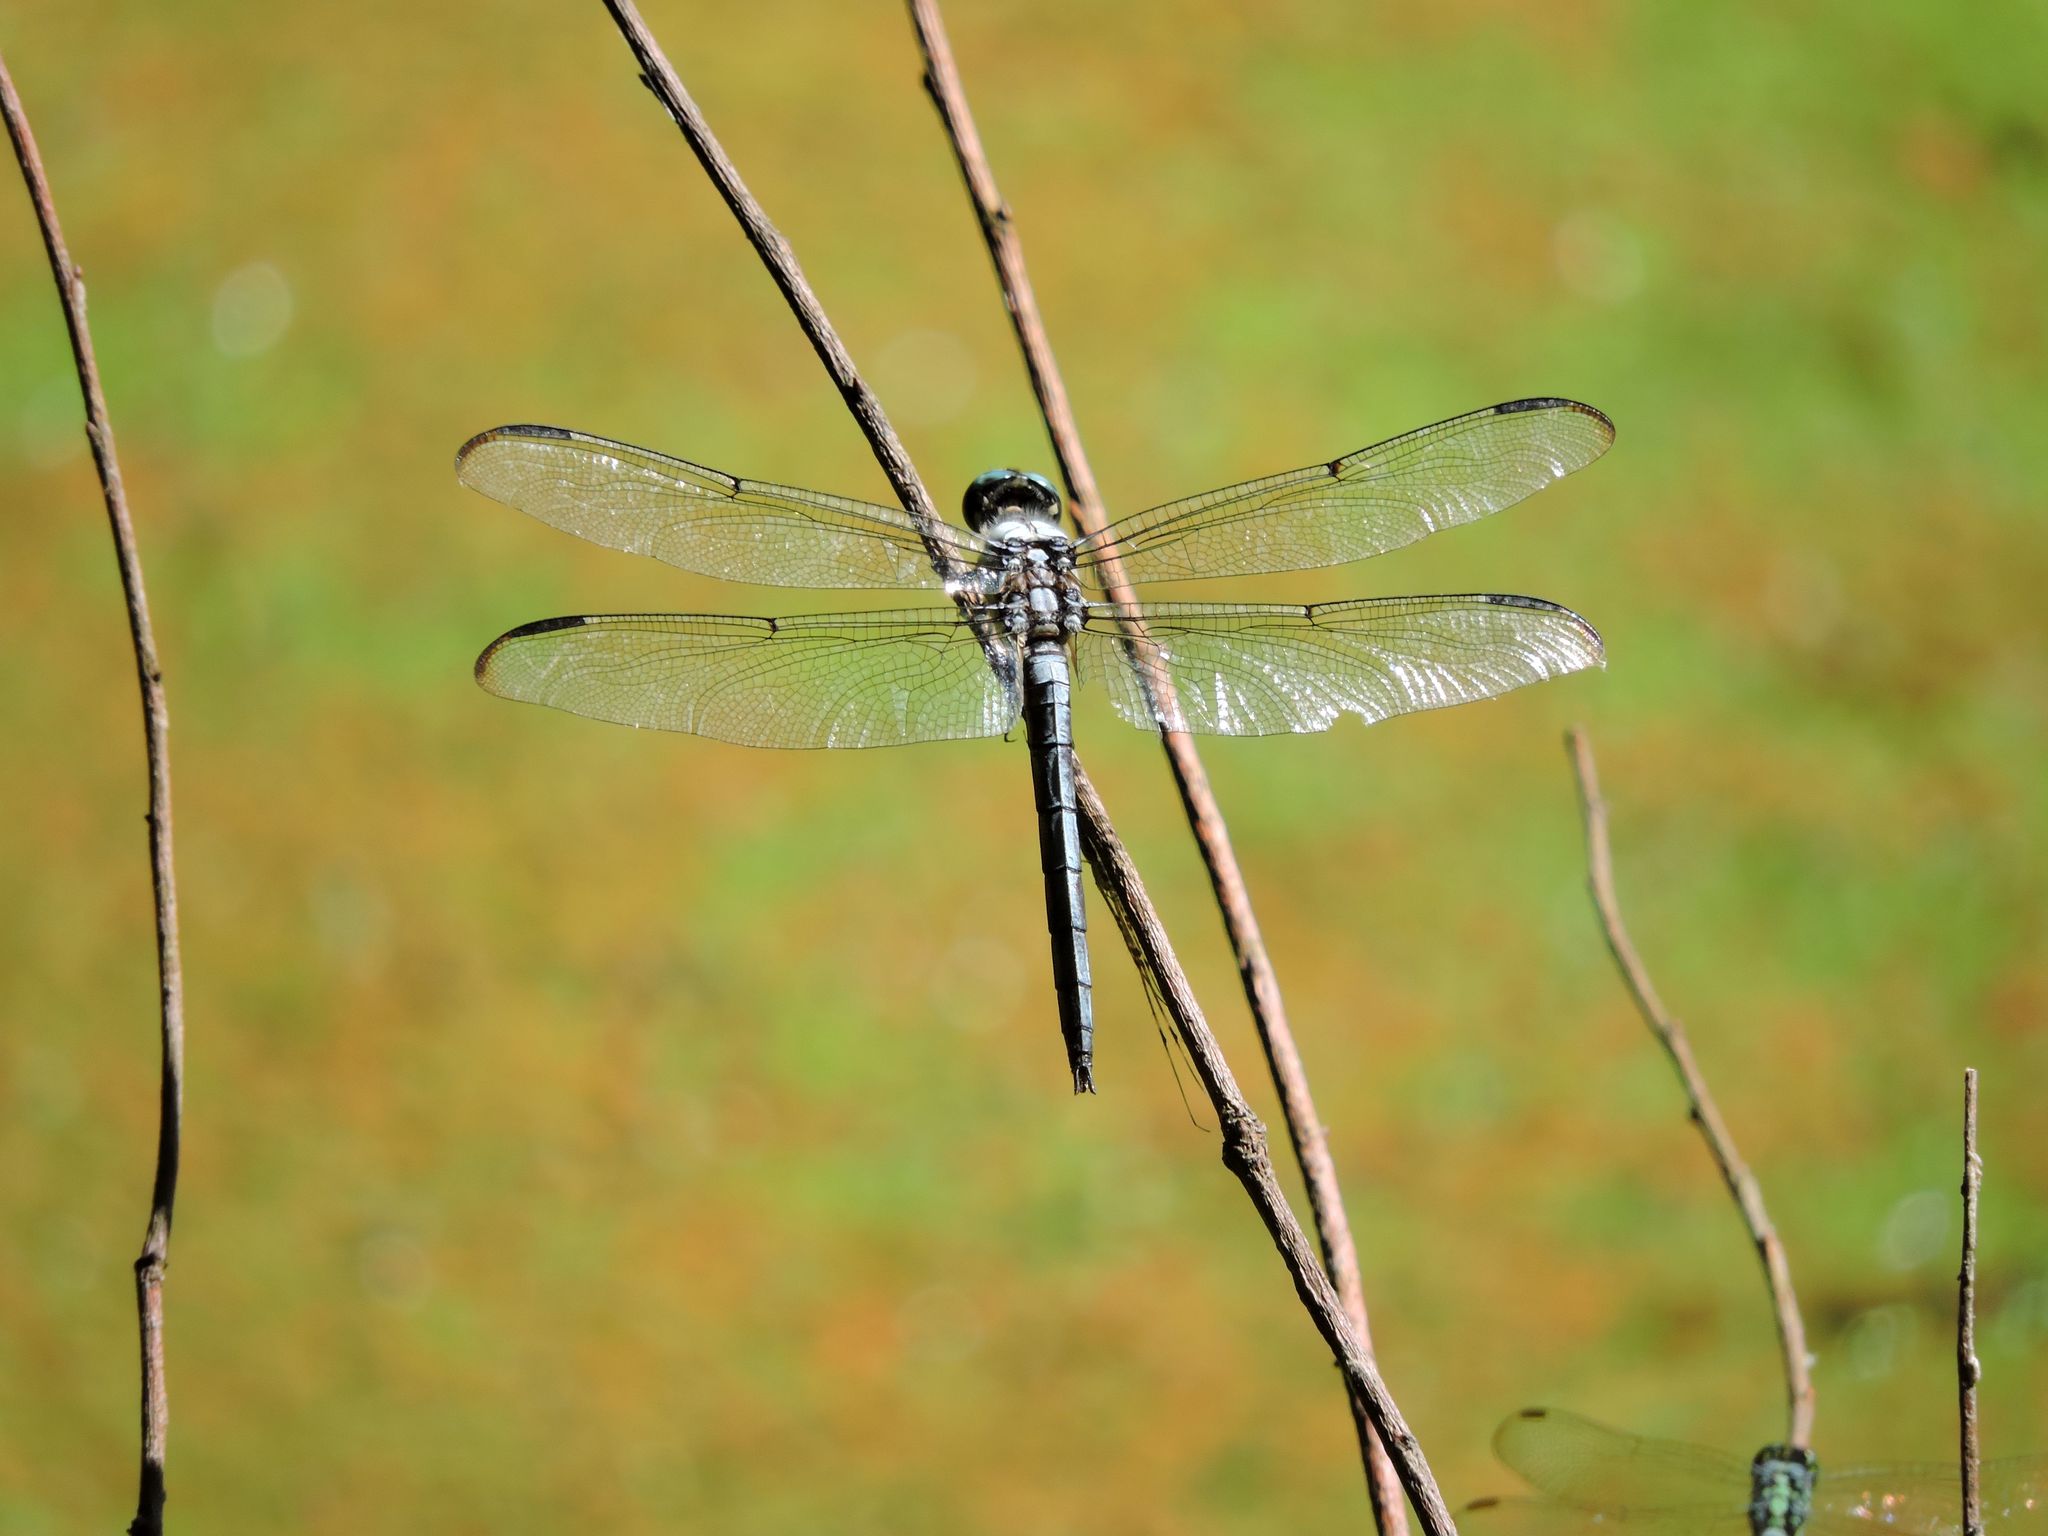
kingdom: Animalia
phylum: Arthropoda
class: Insecta
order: Odonata
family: Libellulidae
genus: Libellula
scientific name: Libellula vibrans
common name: Great blue skimmer
